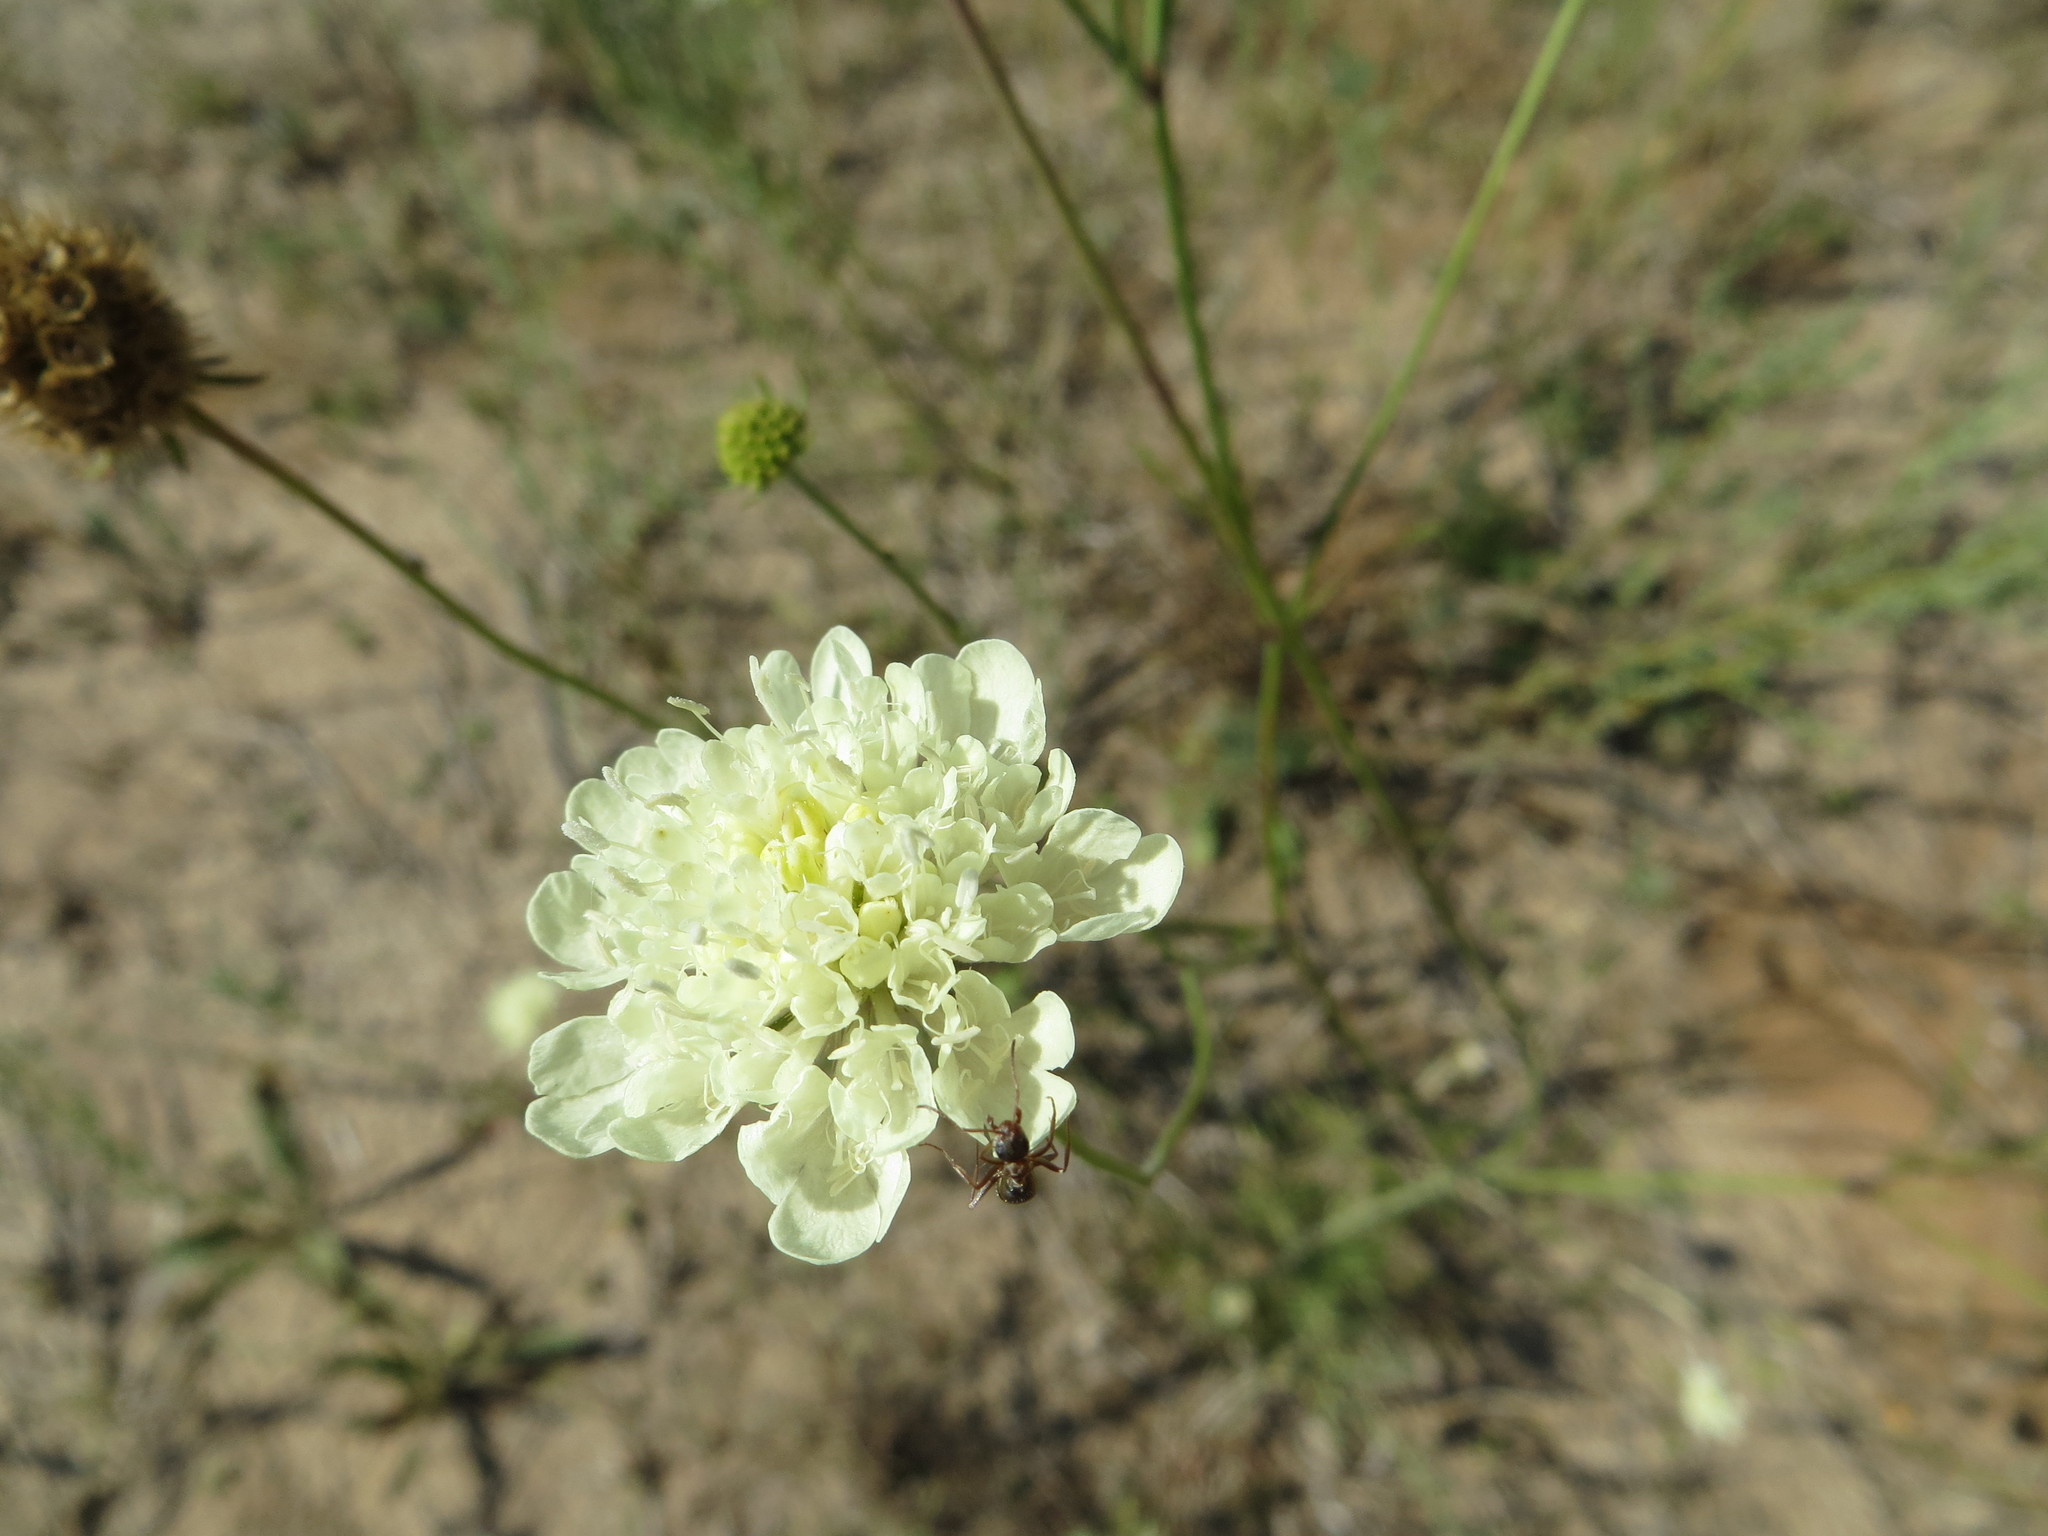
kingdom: Plantae
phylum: Tracheophyta
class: Magnoliopsida
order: Dipsacales
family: Caprifoliaceae
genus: Scabiosa
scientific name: Scabiosa ochroleuca
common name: Cream pincushions
